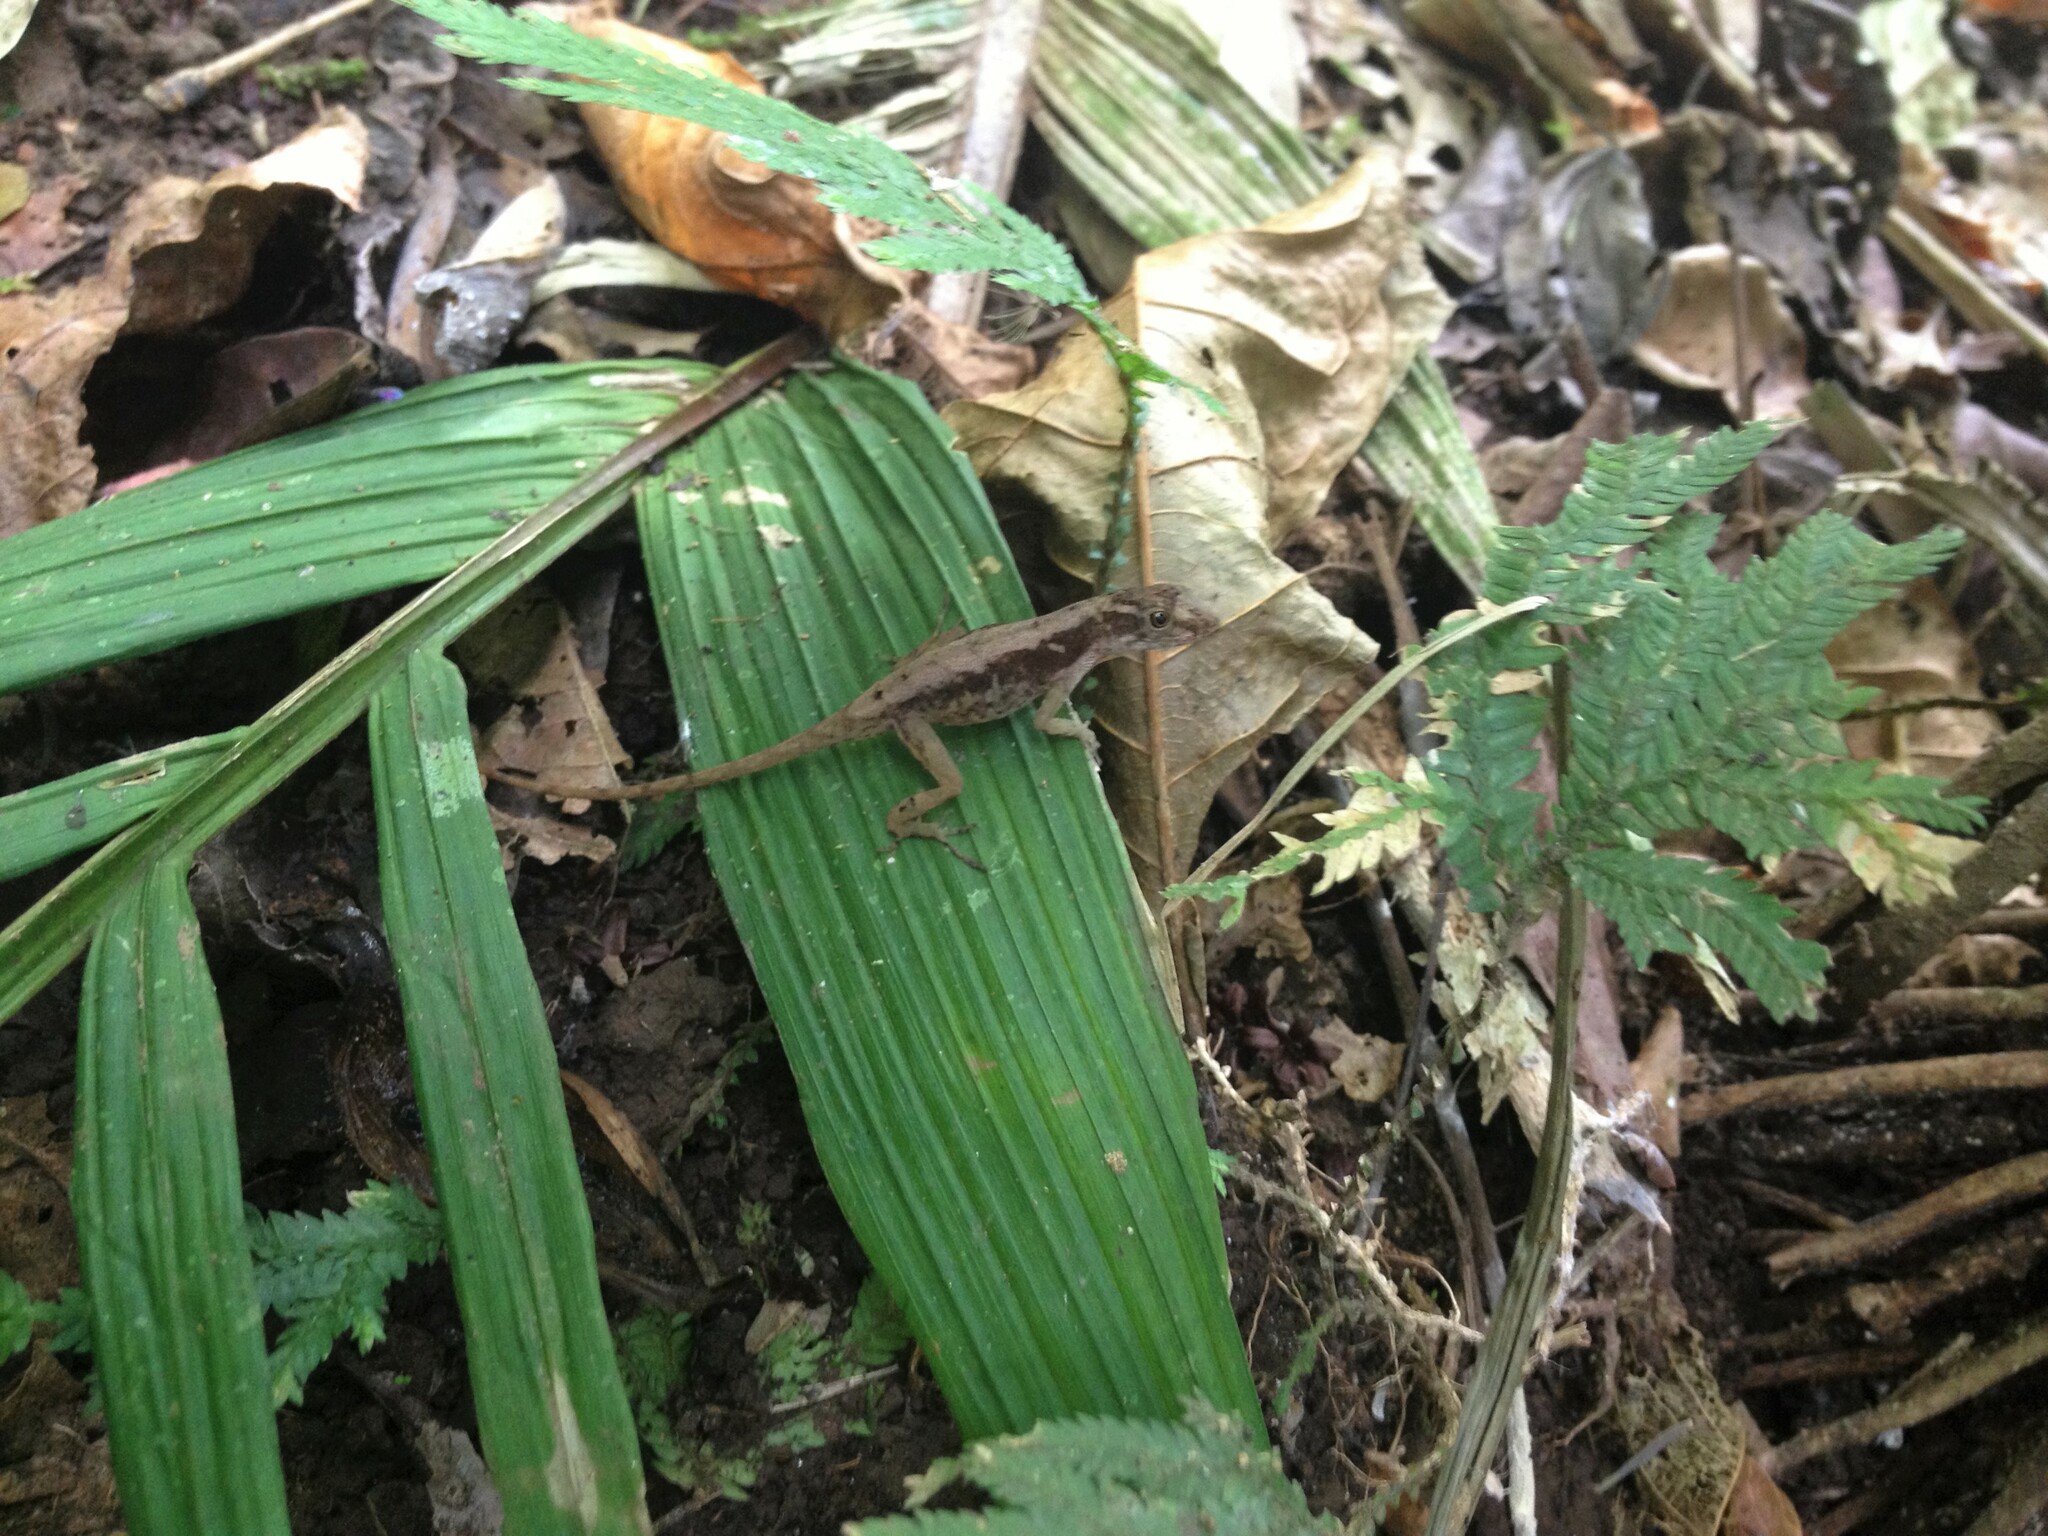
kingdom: Animalia
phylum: Chordata
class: Squamata
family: Dactyloidae
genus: Anolis
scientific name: Anolis humilis
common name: Humble anole
